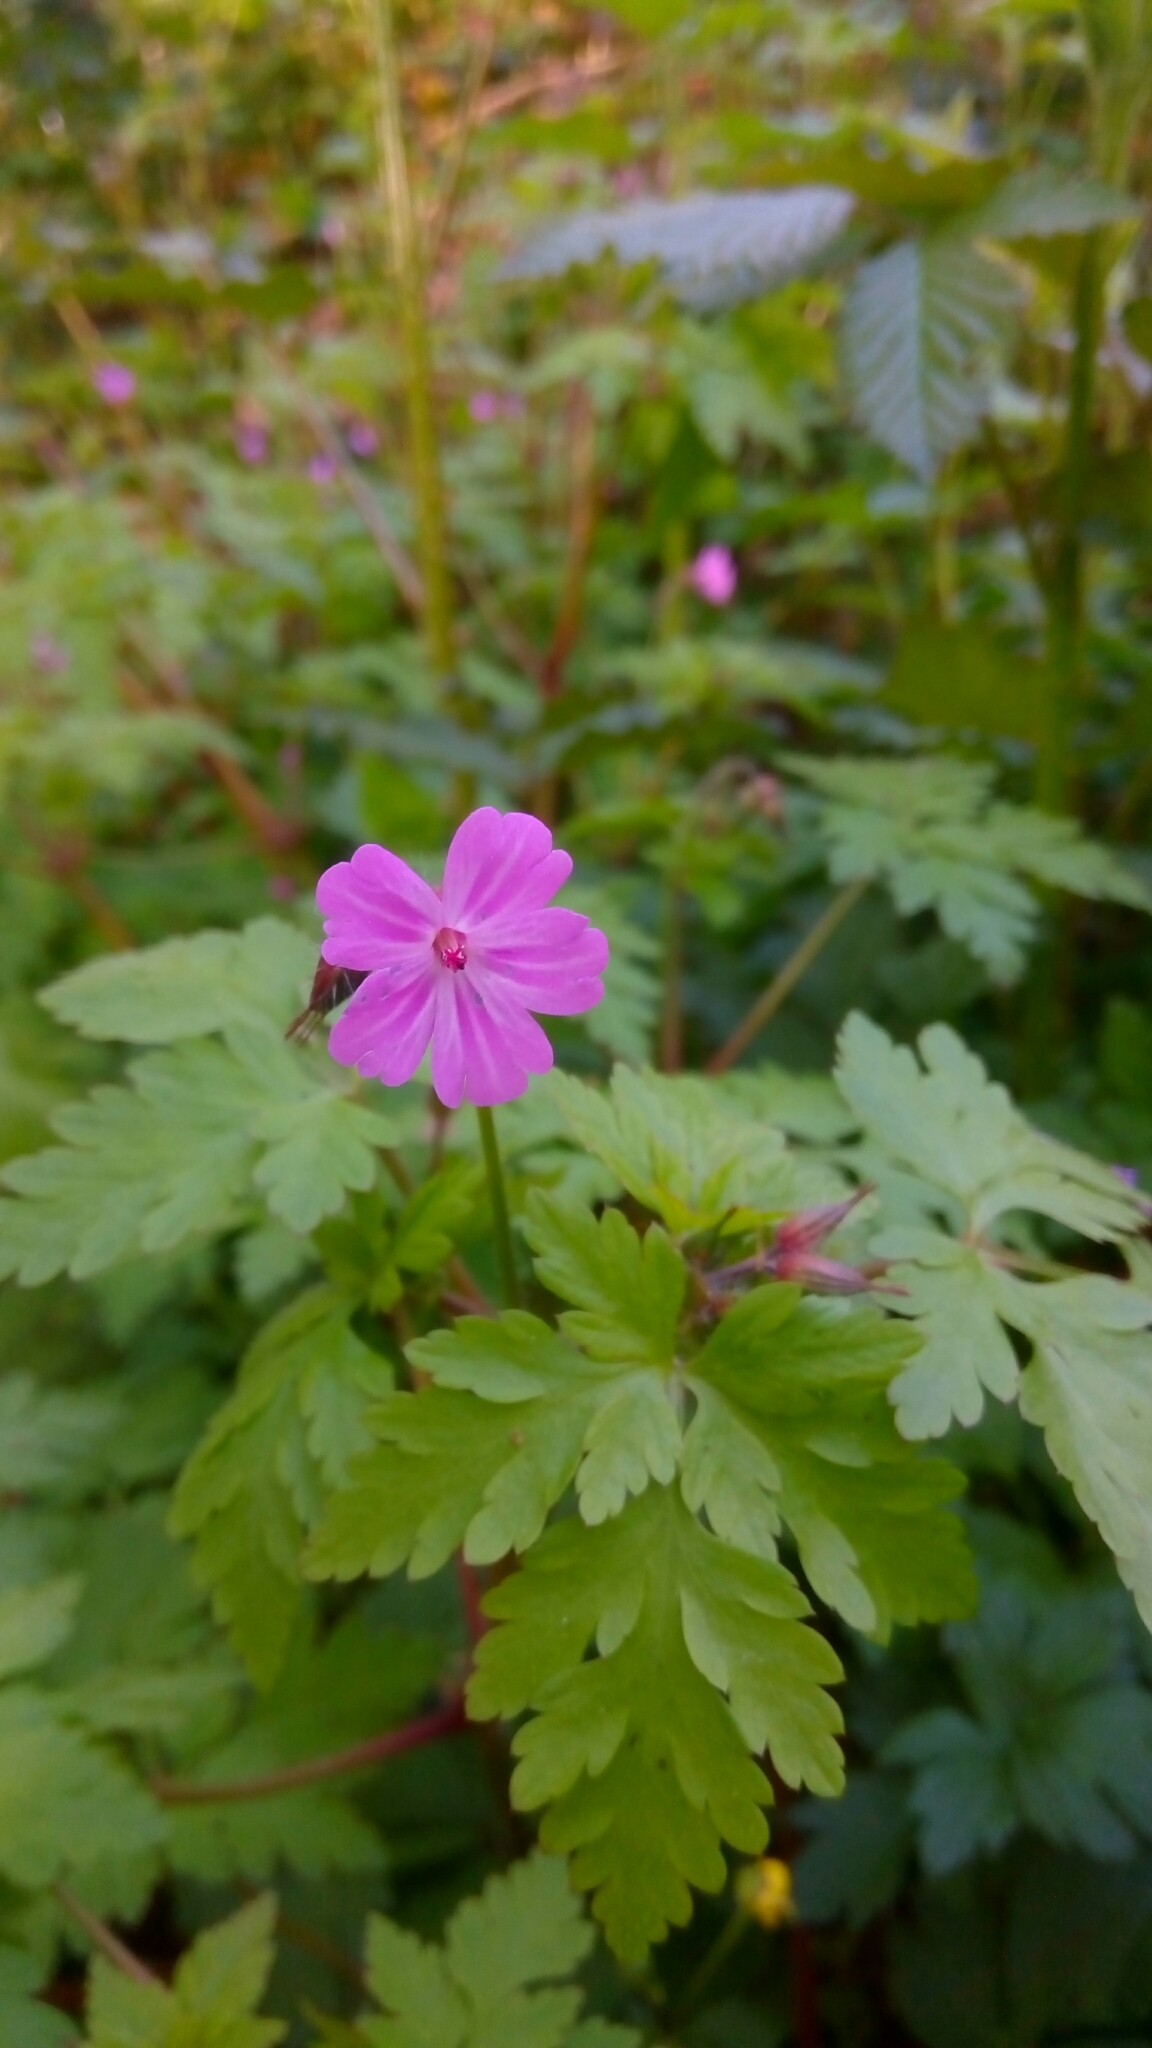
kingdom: Plantae
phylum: Tracheophyta
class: Magnoliopsida
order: Geraniales
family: Geraniaceae
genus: Geranium
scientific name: Geranium robertianum
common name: Herb-robert
